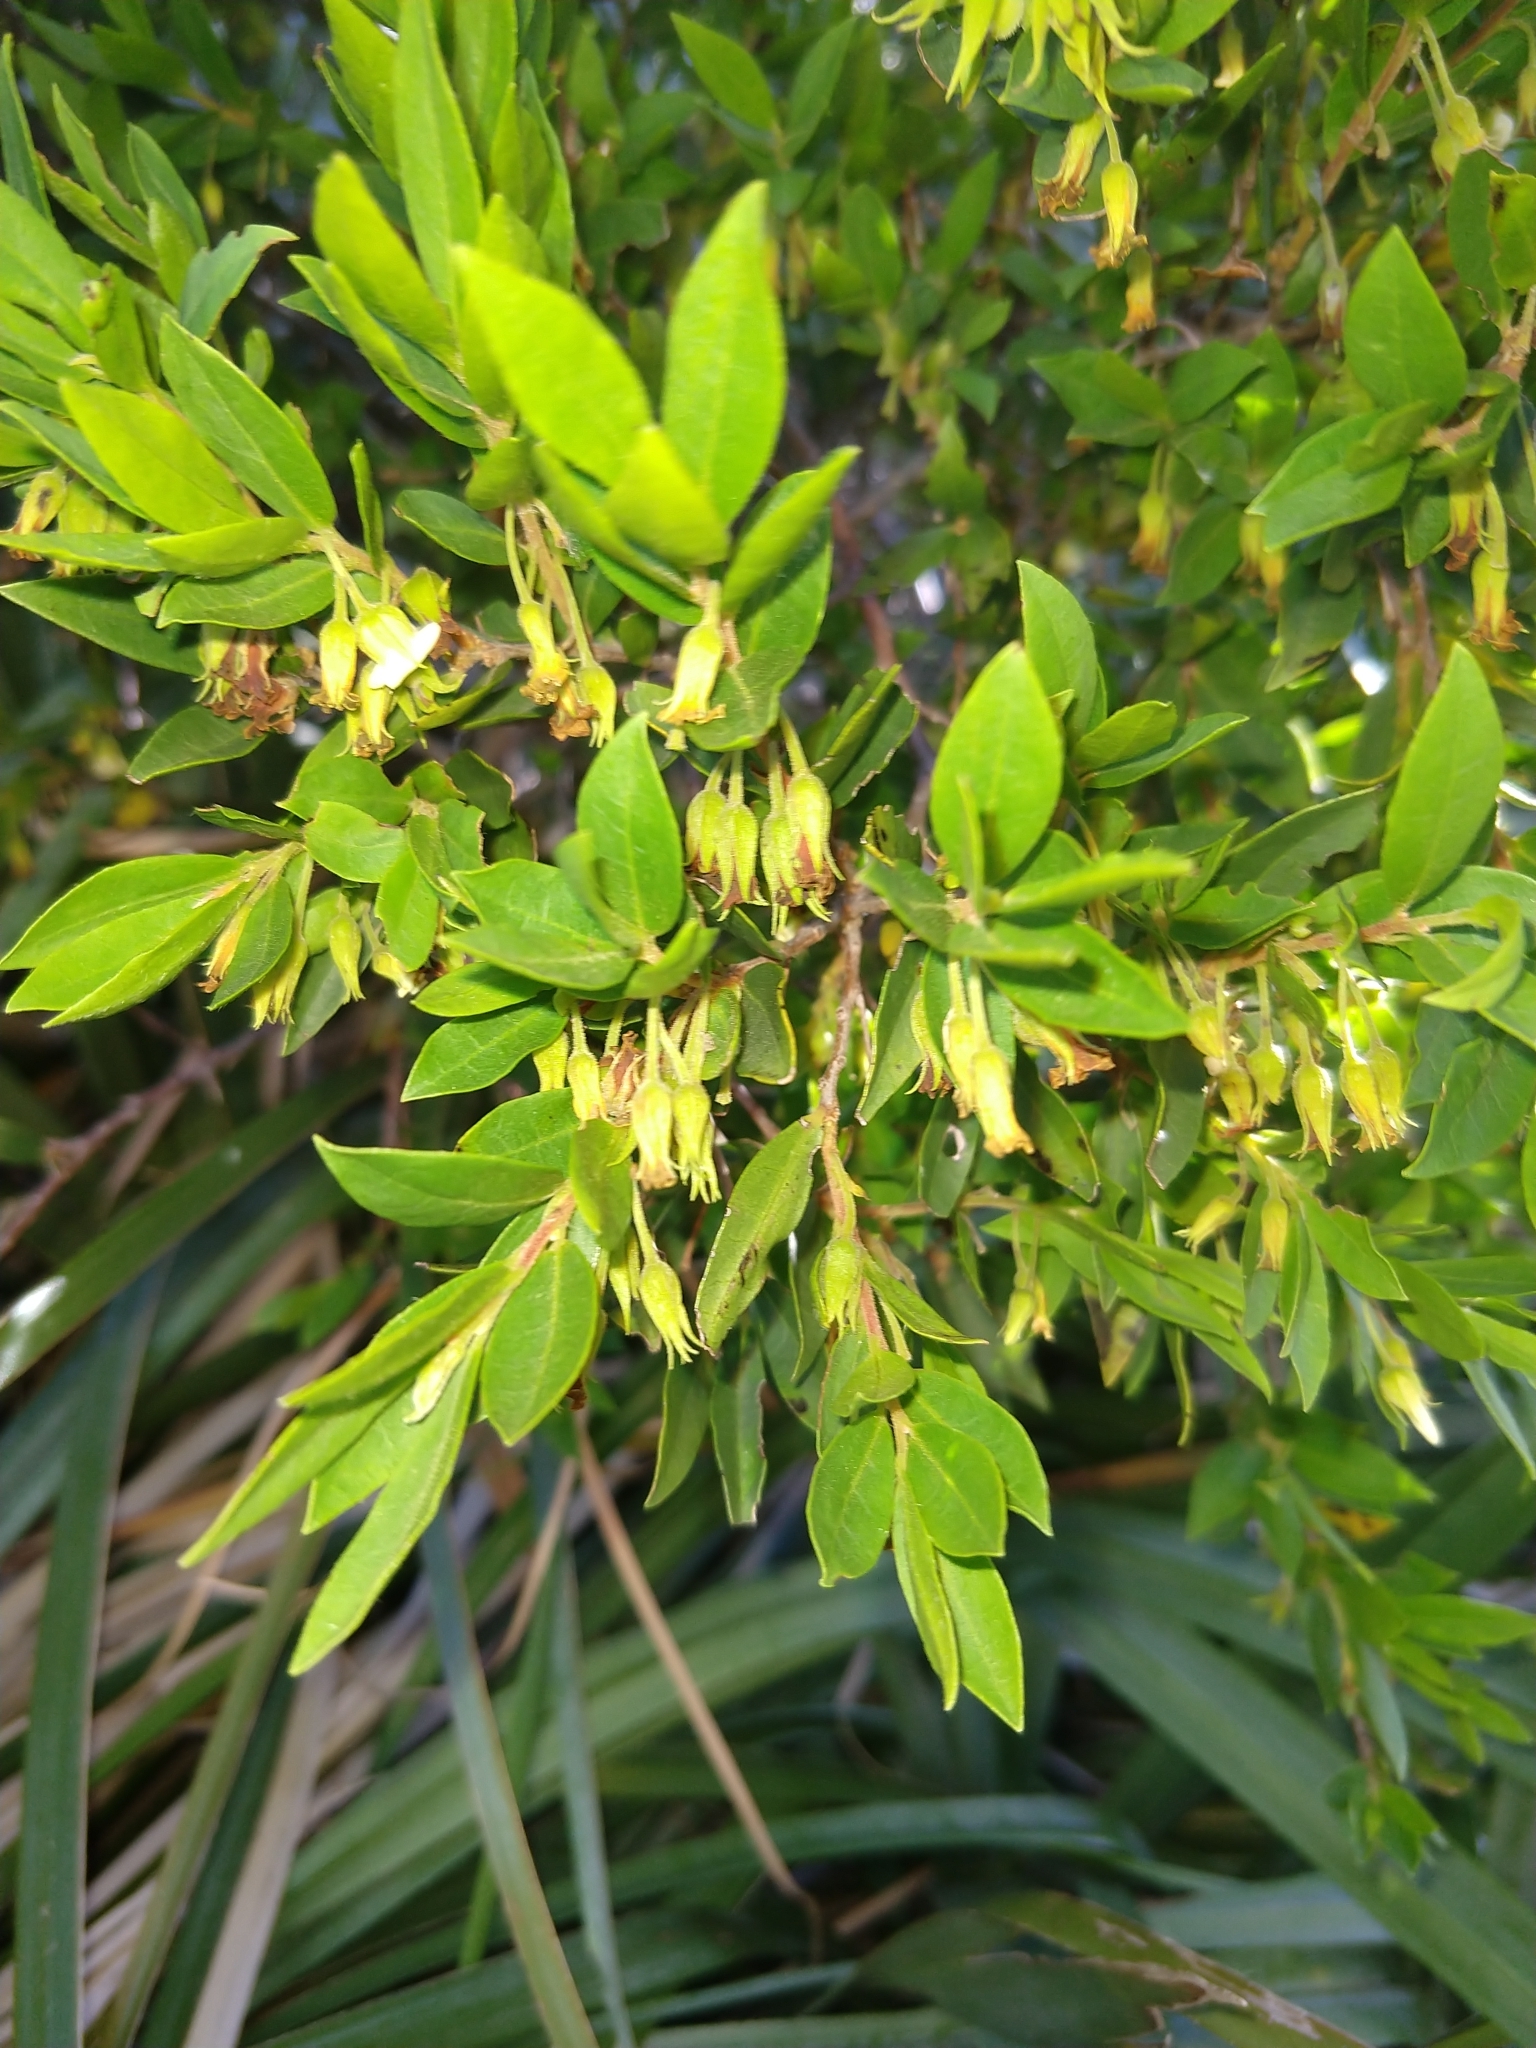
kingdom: Plantae
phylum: Tracheophyta
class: Magnoliopsida
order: Ericales
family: Ebenaceae
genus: Diospyros
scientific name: Diospyros glabra
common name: Fynbos star apple
